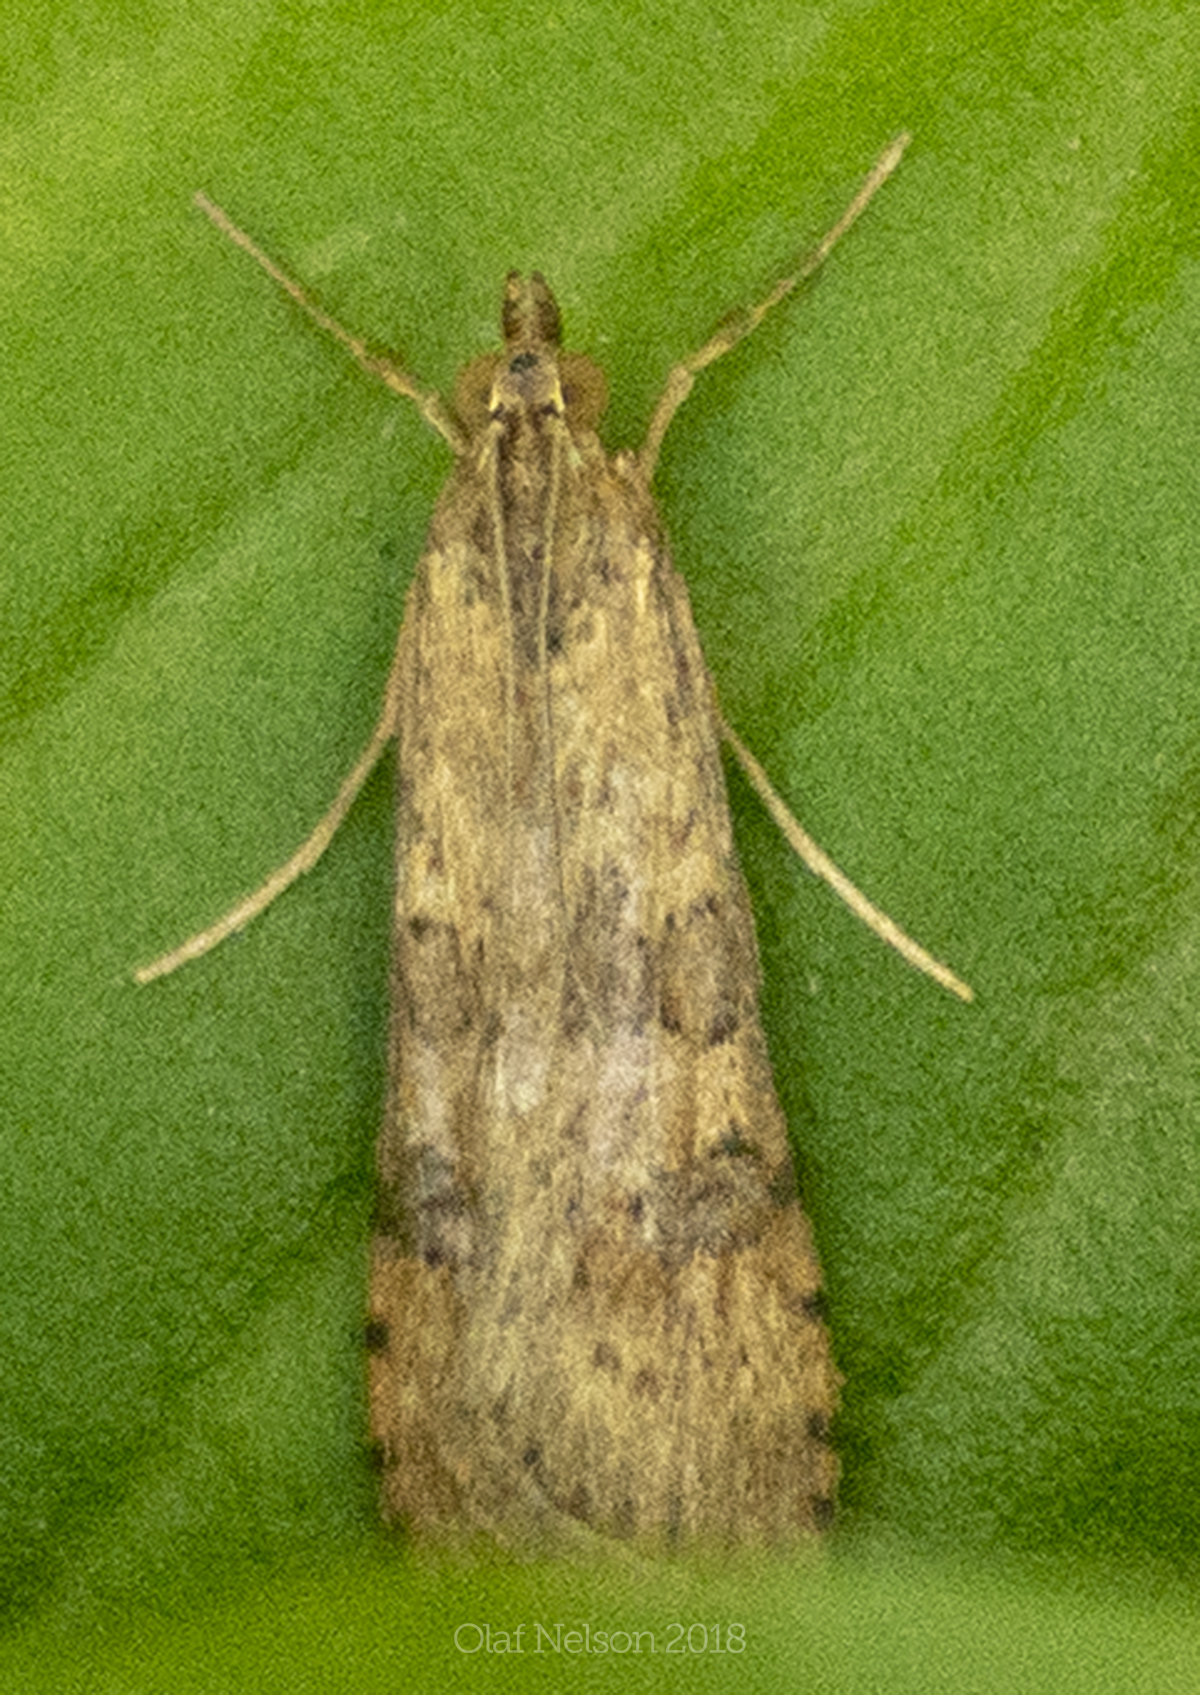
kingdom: Animalia
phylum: Arthropoda
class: Insecta
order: Lepidoptera
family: Crambidae
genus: Nomophila
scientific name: Nomophila nearctica
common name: American rush veneer
